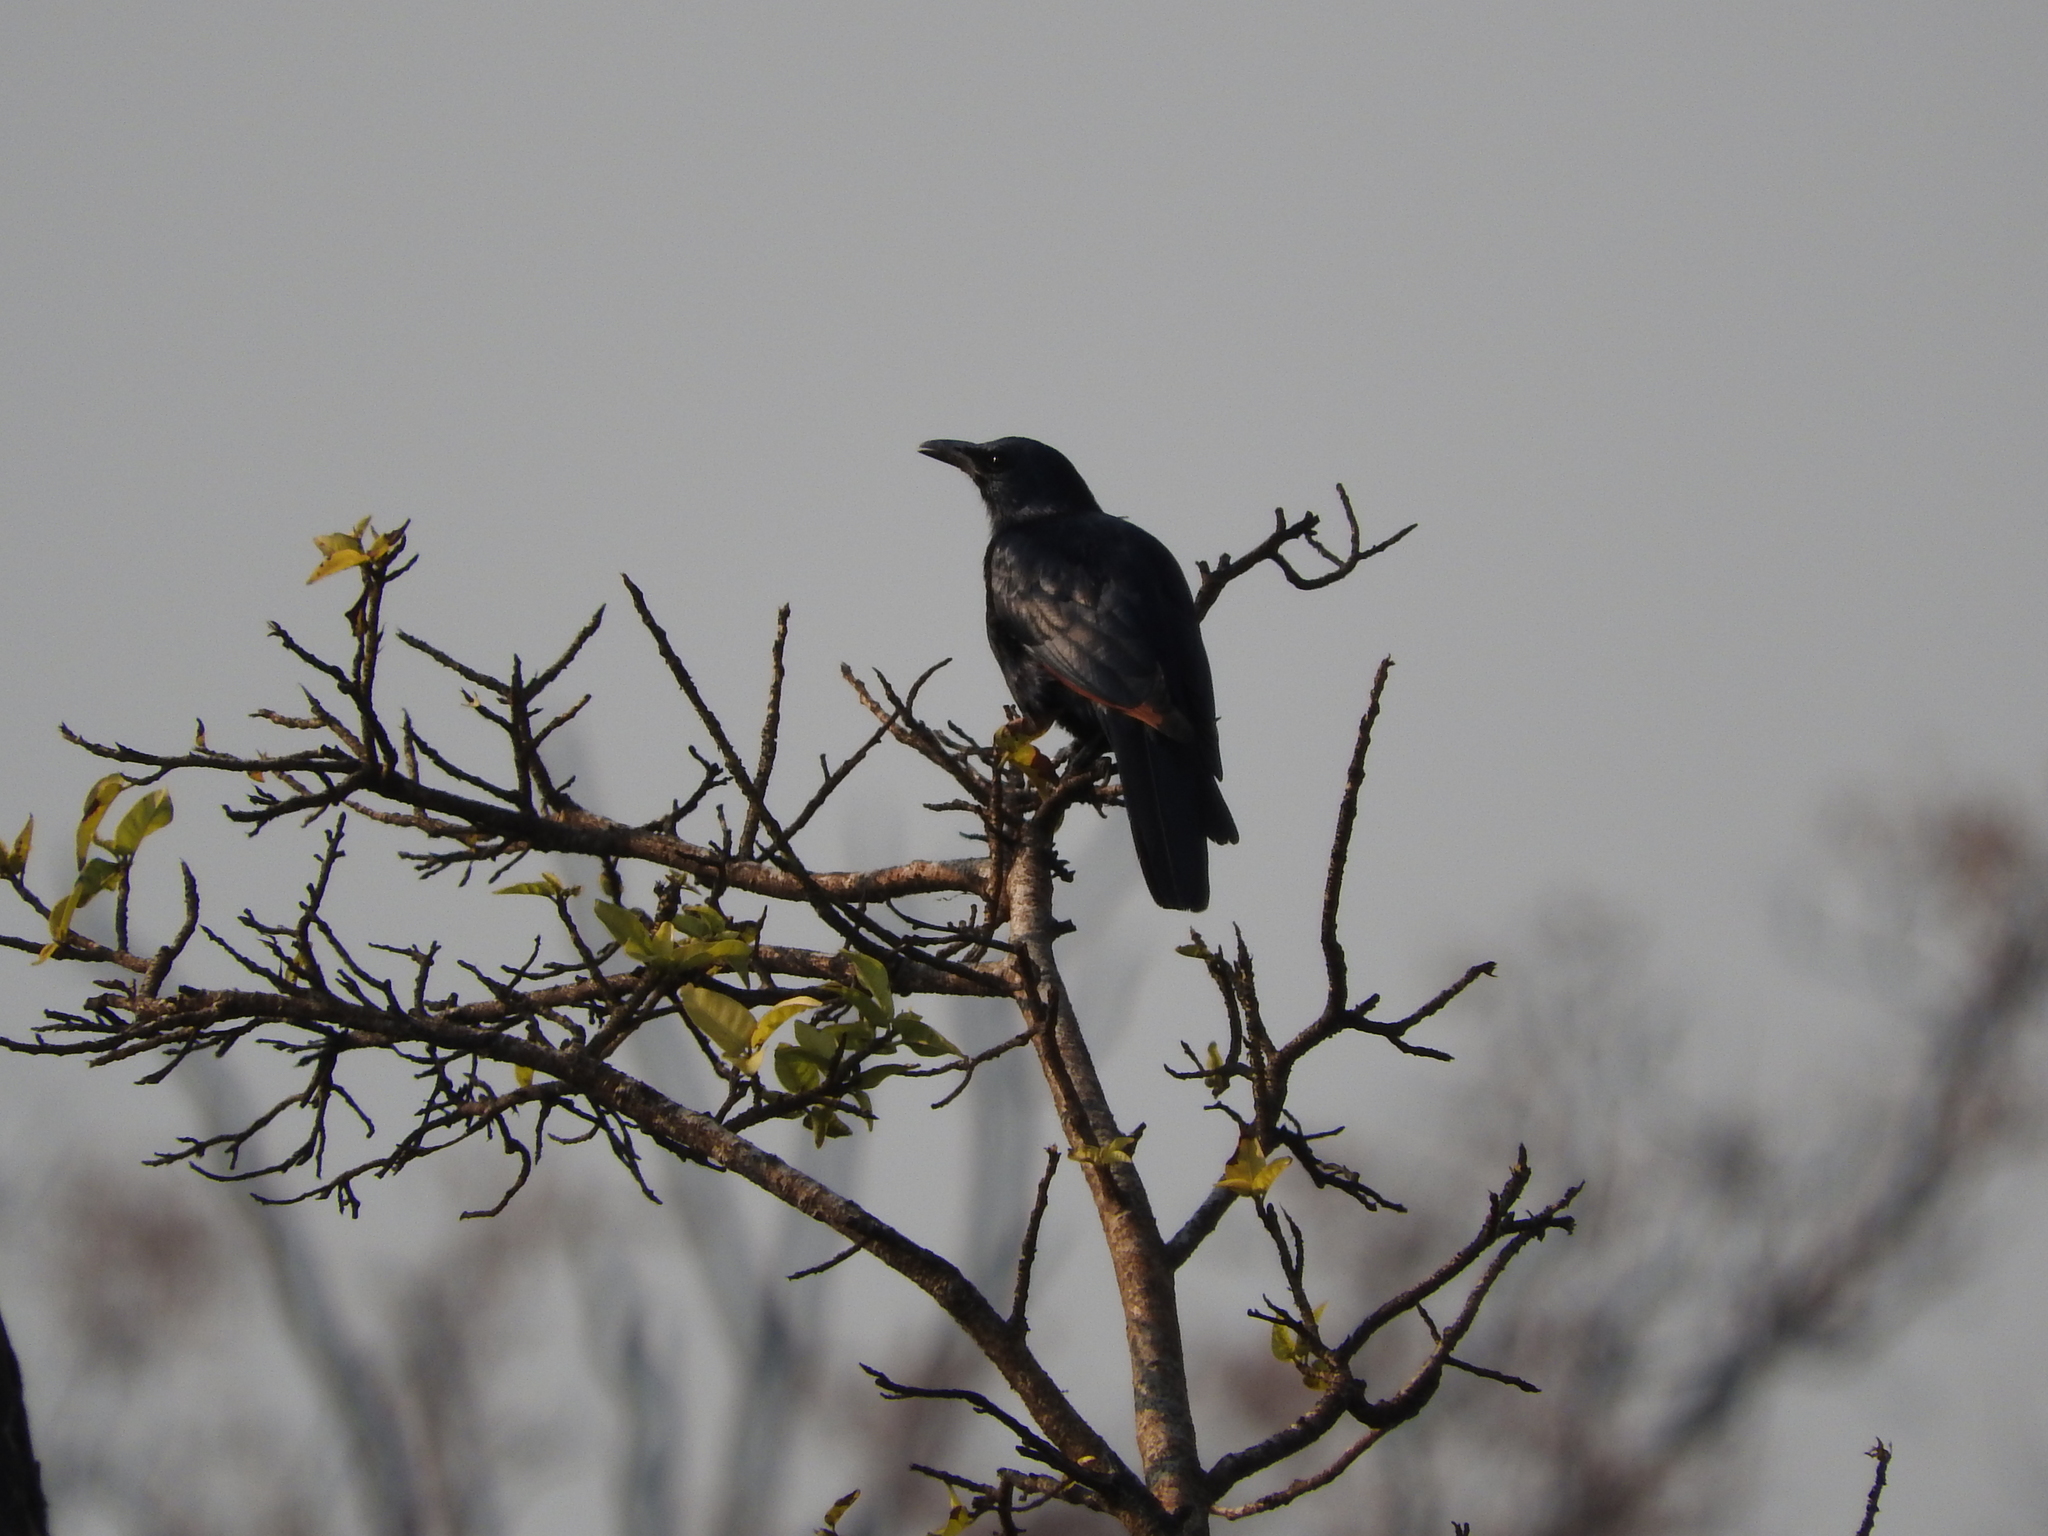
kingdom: Animalia
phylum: Chordata
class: Aves
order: Passeriformes
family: Sturnidae
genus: Onychognathus
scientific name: Onychognathus morio
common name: Red-winged starling
